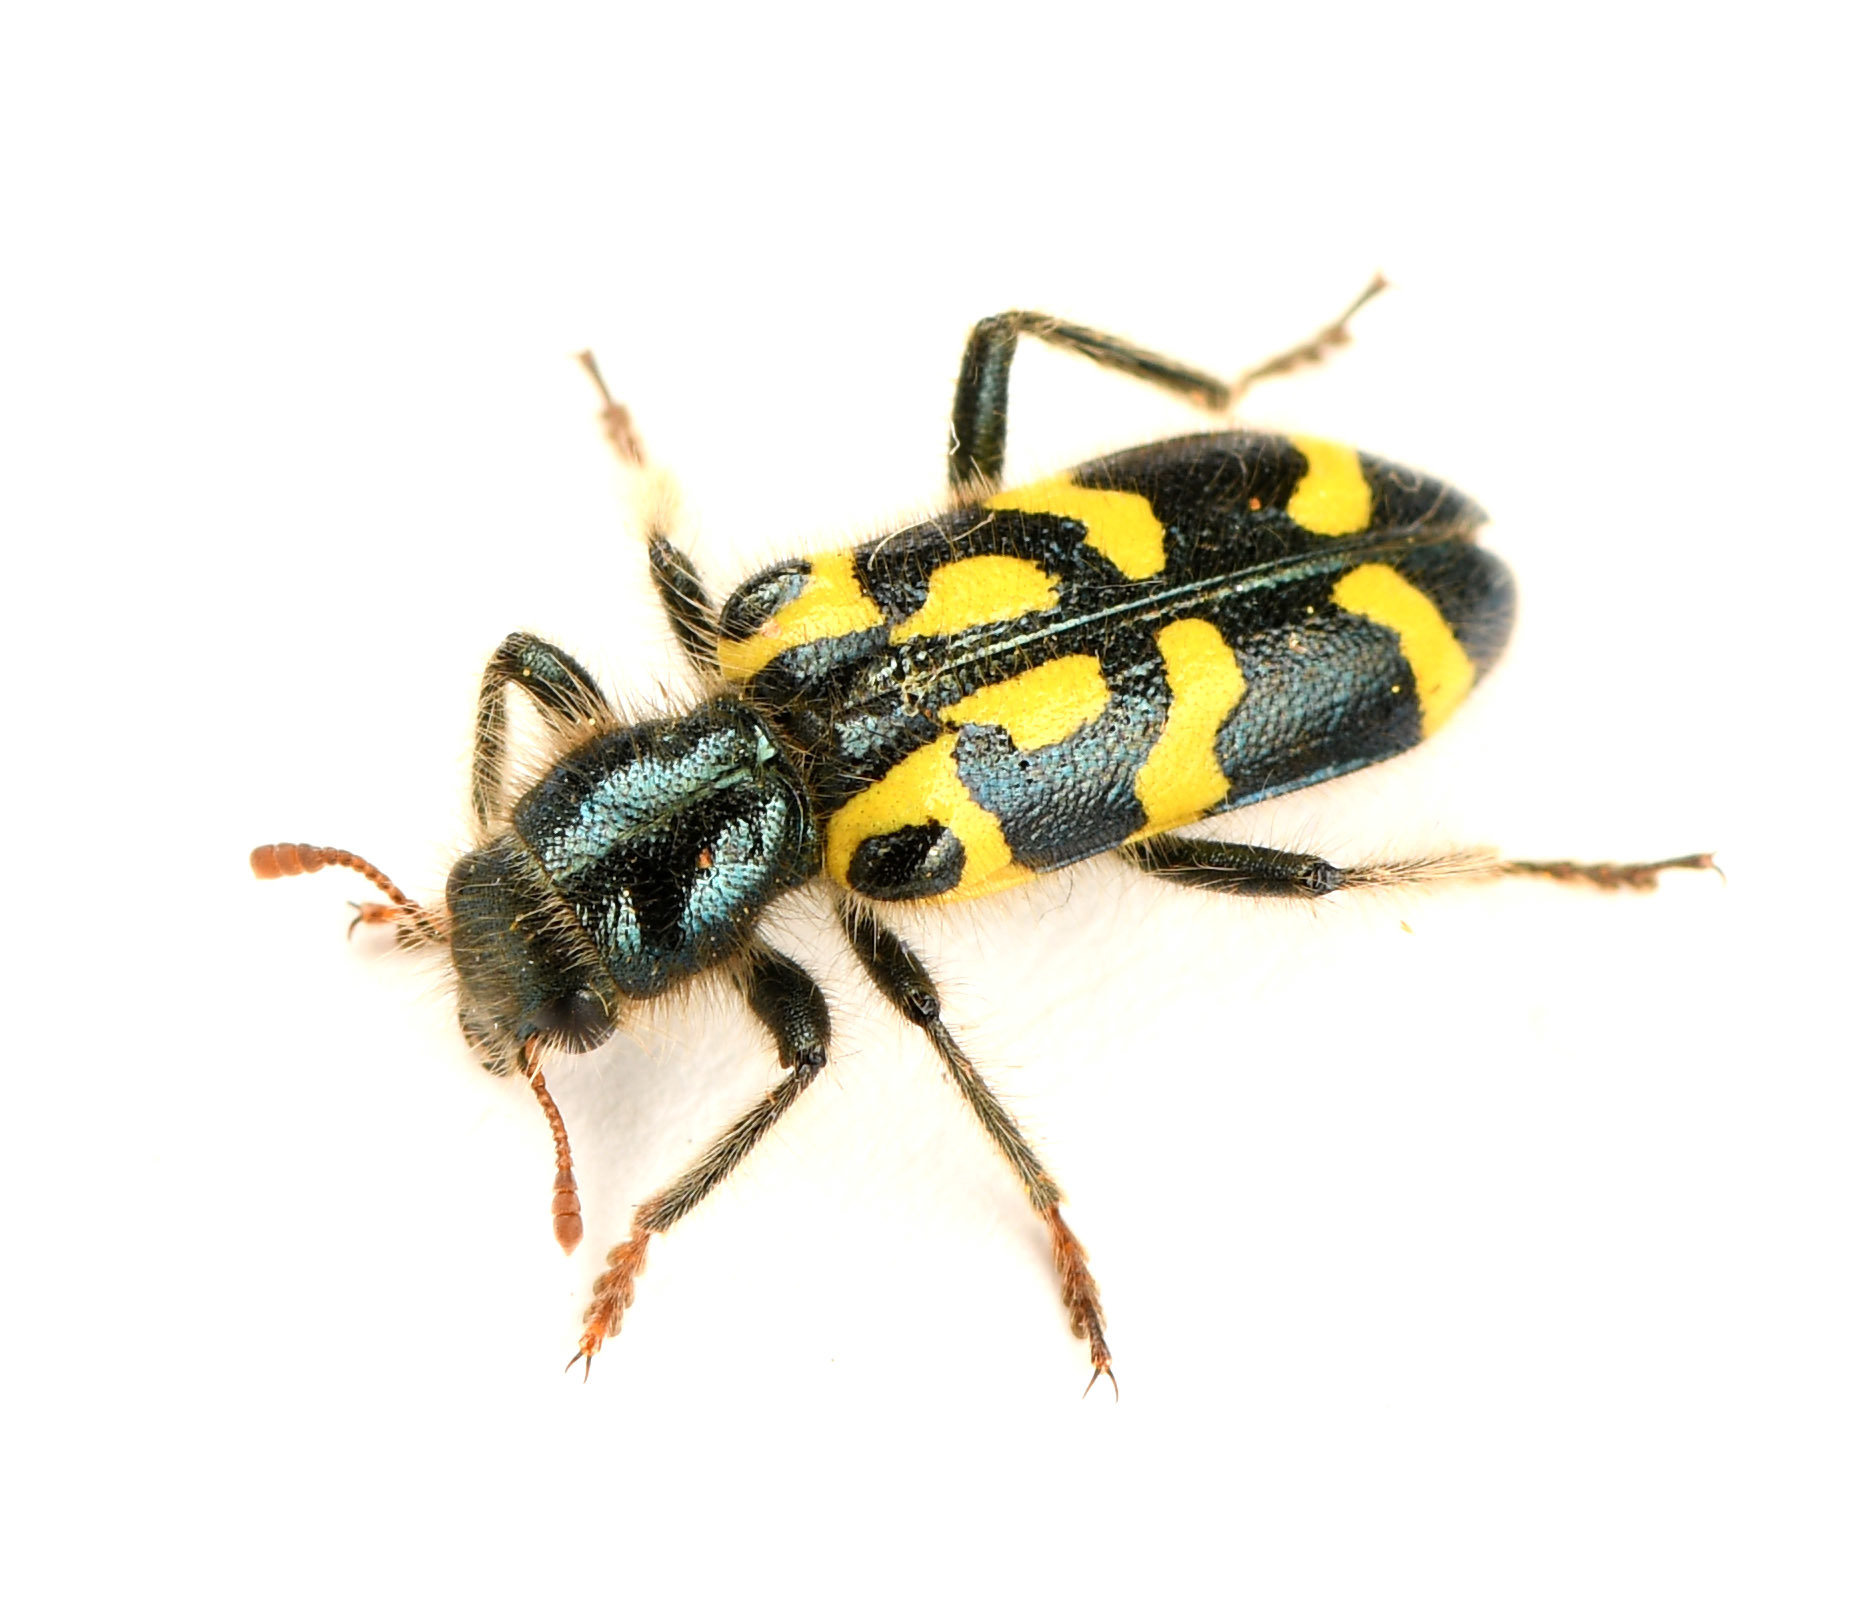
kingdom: Animalia
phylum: Arthropoda
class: Insecta
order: Coleoptera
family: Cleridae
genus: Trichodes
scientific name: Trichodes ornatus
